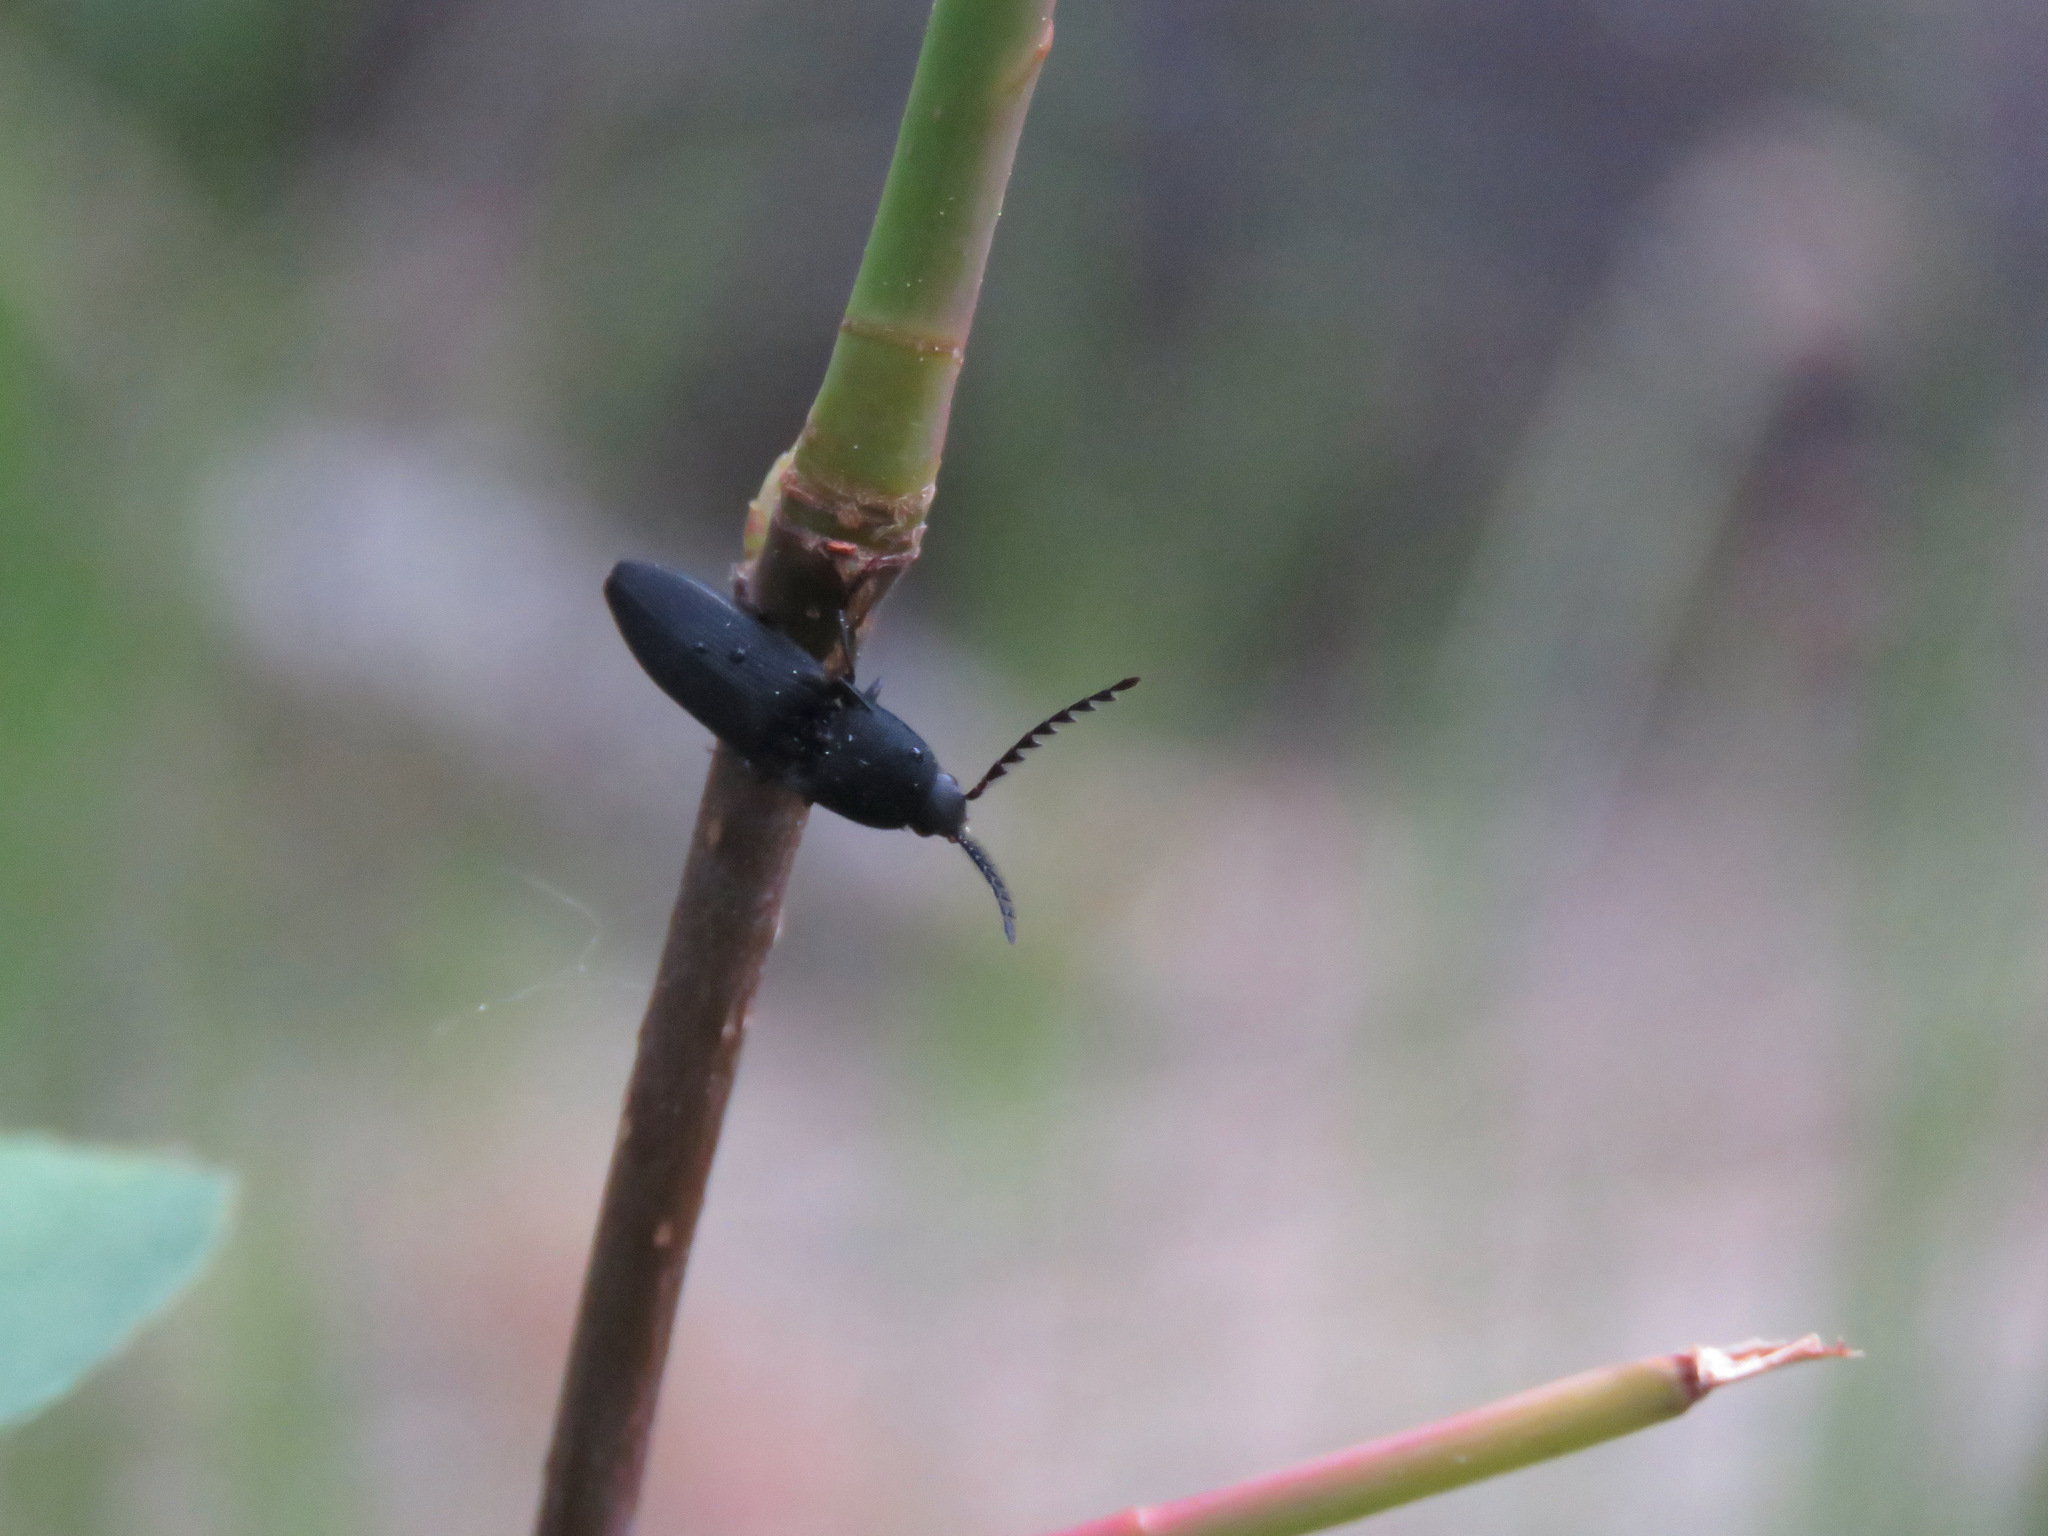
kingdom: Animalia
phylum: Arthropoda
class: Insecta
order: Coleoptera
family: Elateridae
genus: Megapenthes
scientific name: Megapenthes tartareus
